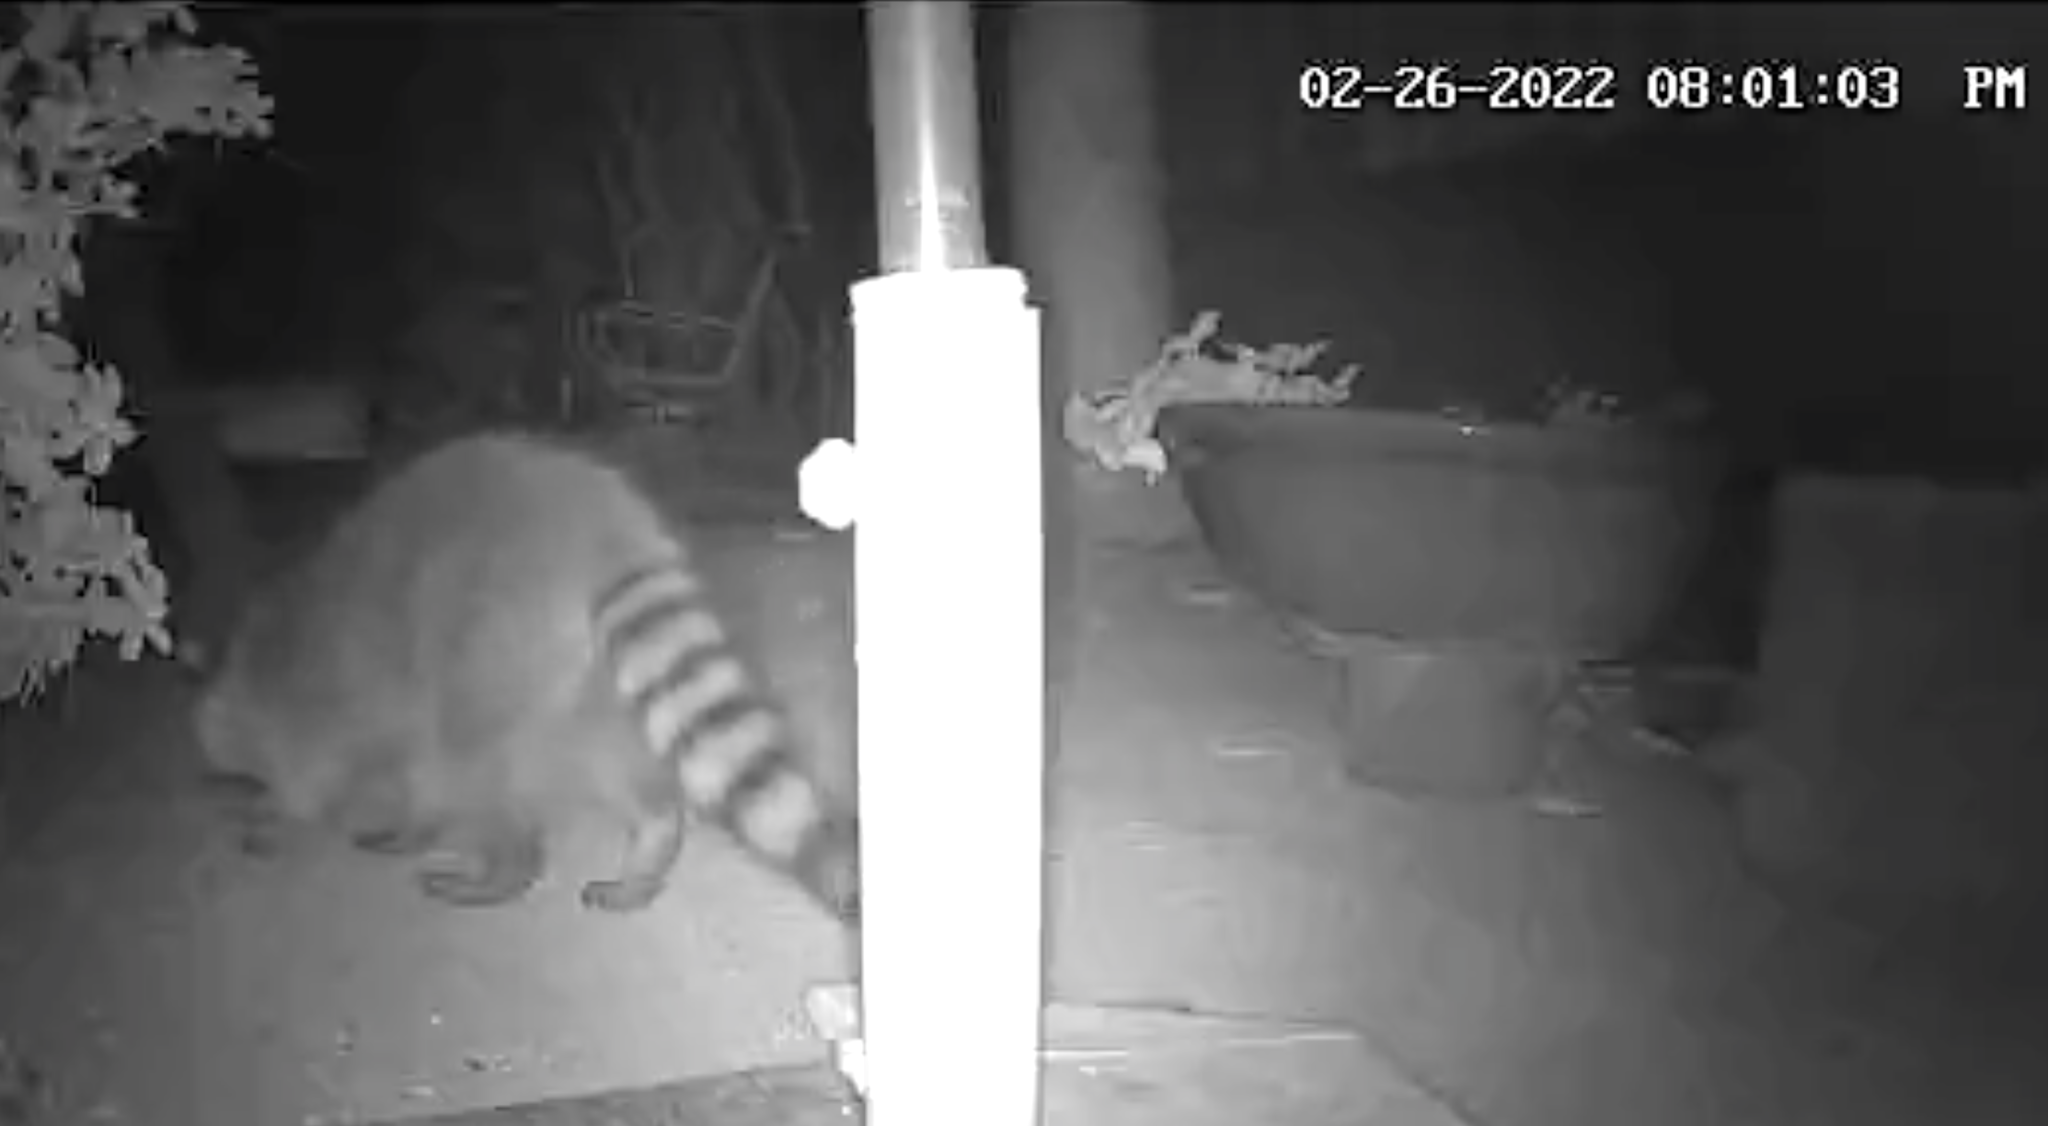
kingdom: Animalia
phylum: Chordata
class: Mammalia
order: Carnivora
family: Procyonidae
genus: Procyon
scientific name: Procyon lotor
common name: Raccoon
